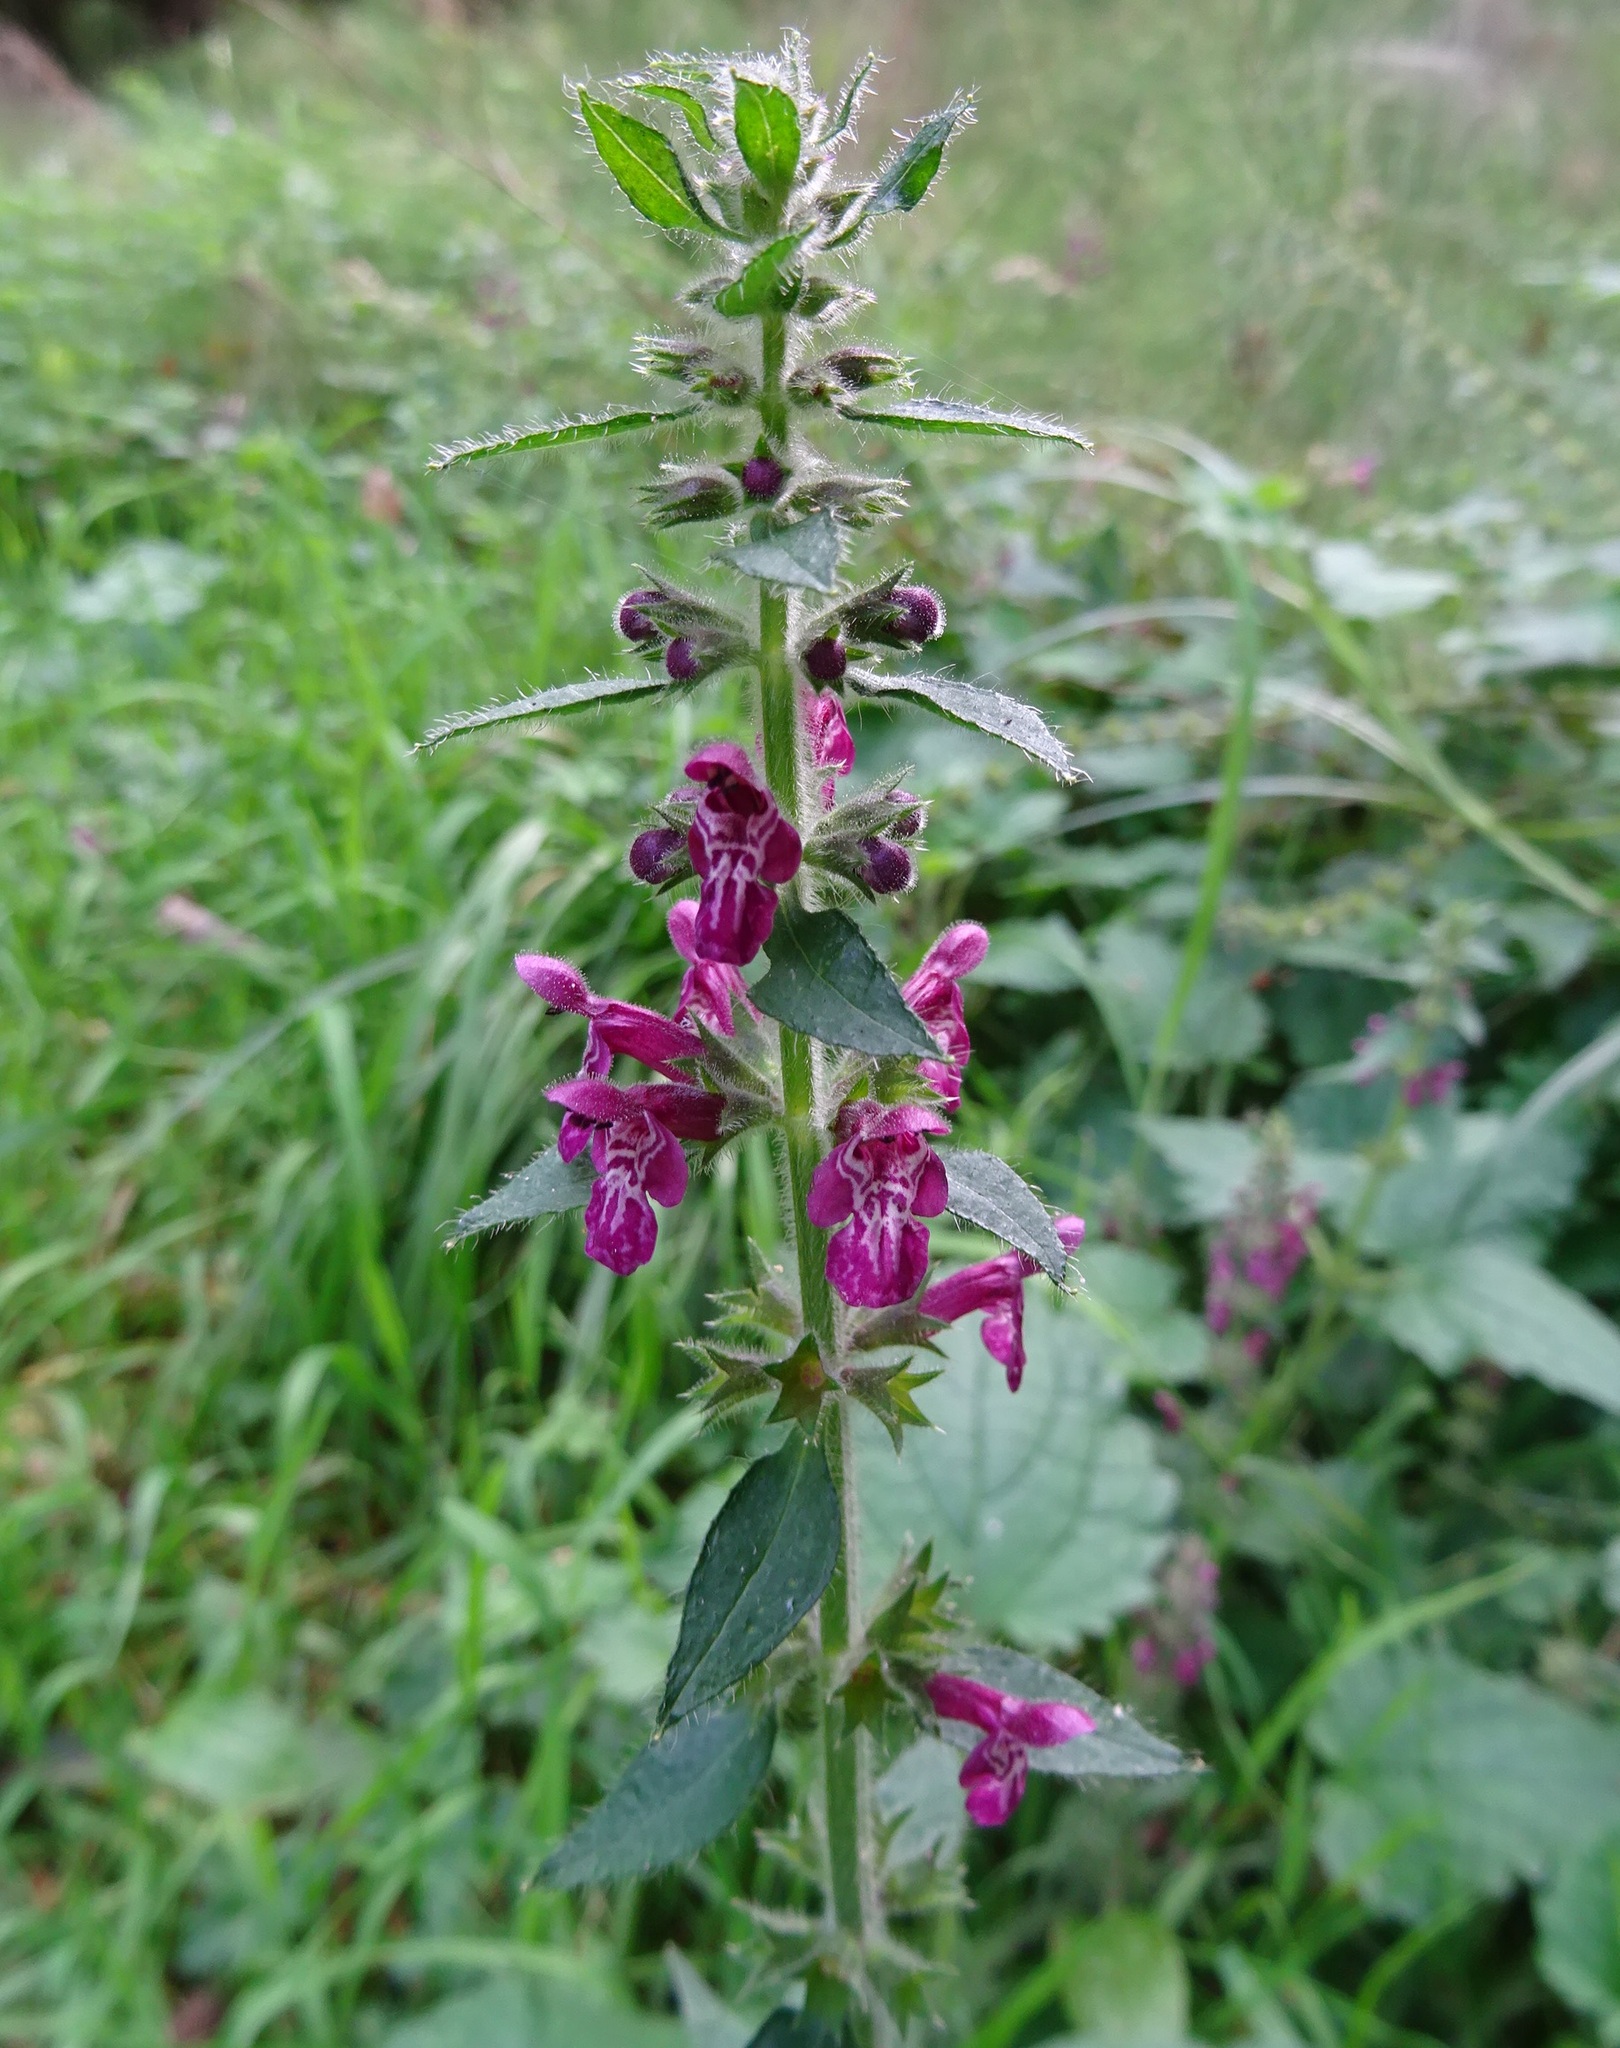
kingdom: Plantae
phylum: Tracheophyta
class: Magnoliopsida
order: Lamiales
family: Lamiaceae
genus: Stachys
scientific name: Stachys sylvatica
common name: Hedge woundwort
